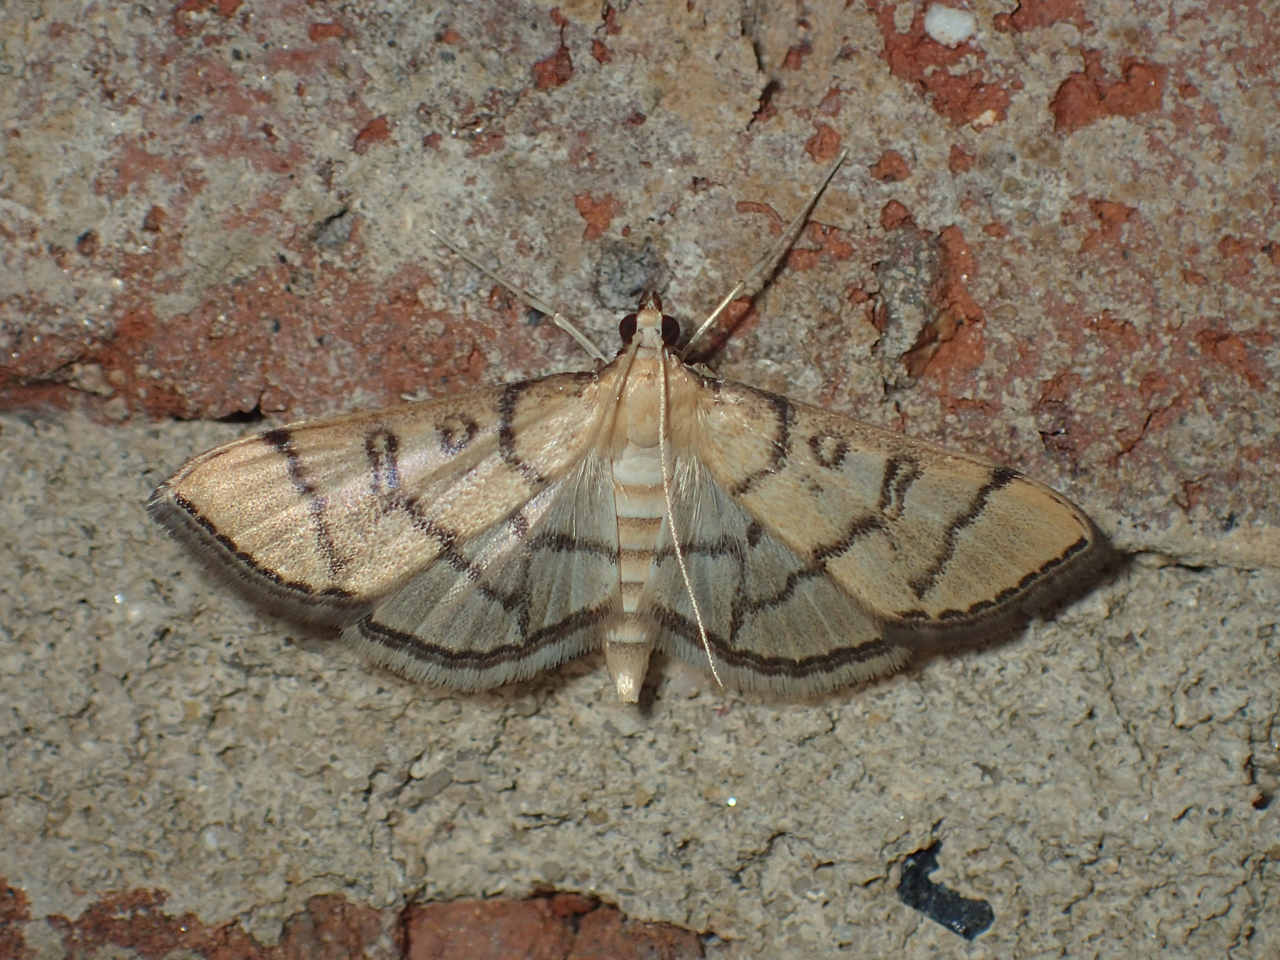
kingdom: Animalia
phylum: Arthropoda
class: Insecta
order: Lepidoptera
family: Crambidae
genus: Lamprosema
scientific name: Lamprosema Blepharomastix ranalis
